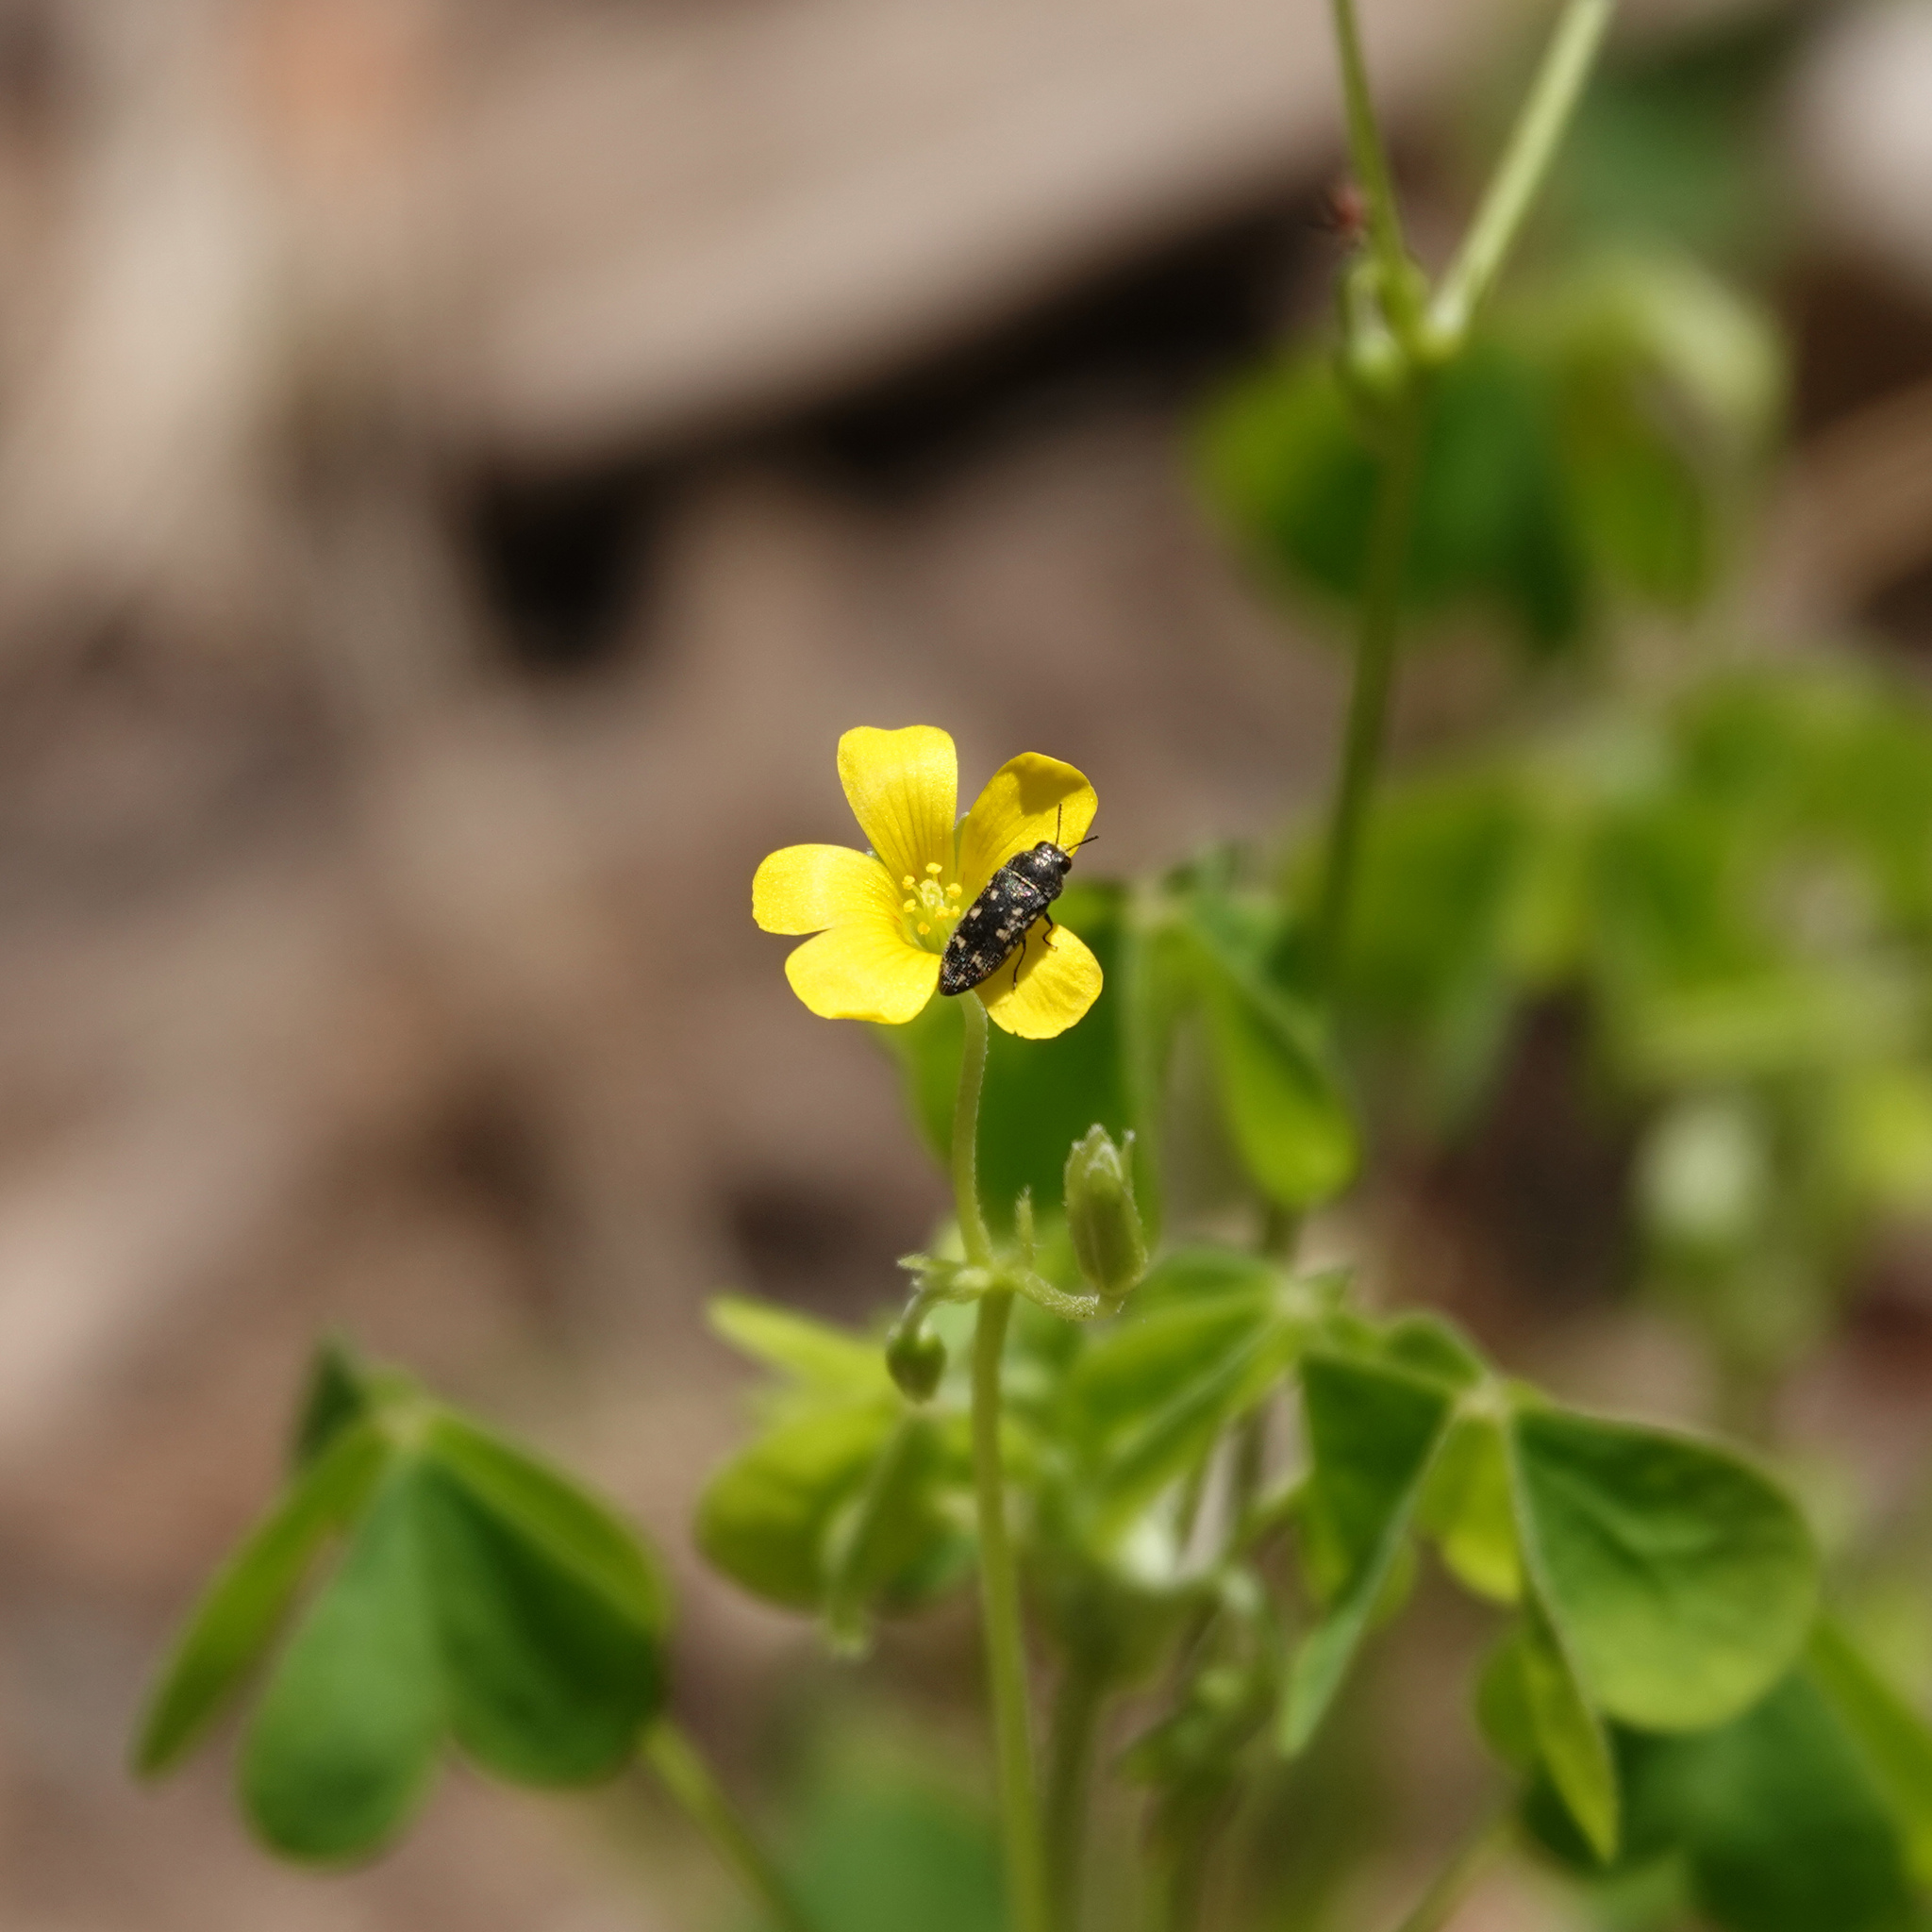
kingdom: Animalia
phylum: Arthropoda
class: Insecta
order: Coleoptera
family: Buprestidae
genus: Acmaeodera
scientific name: Acmaeodera tubulus
